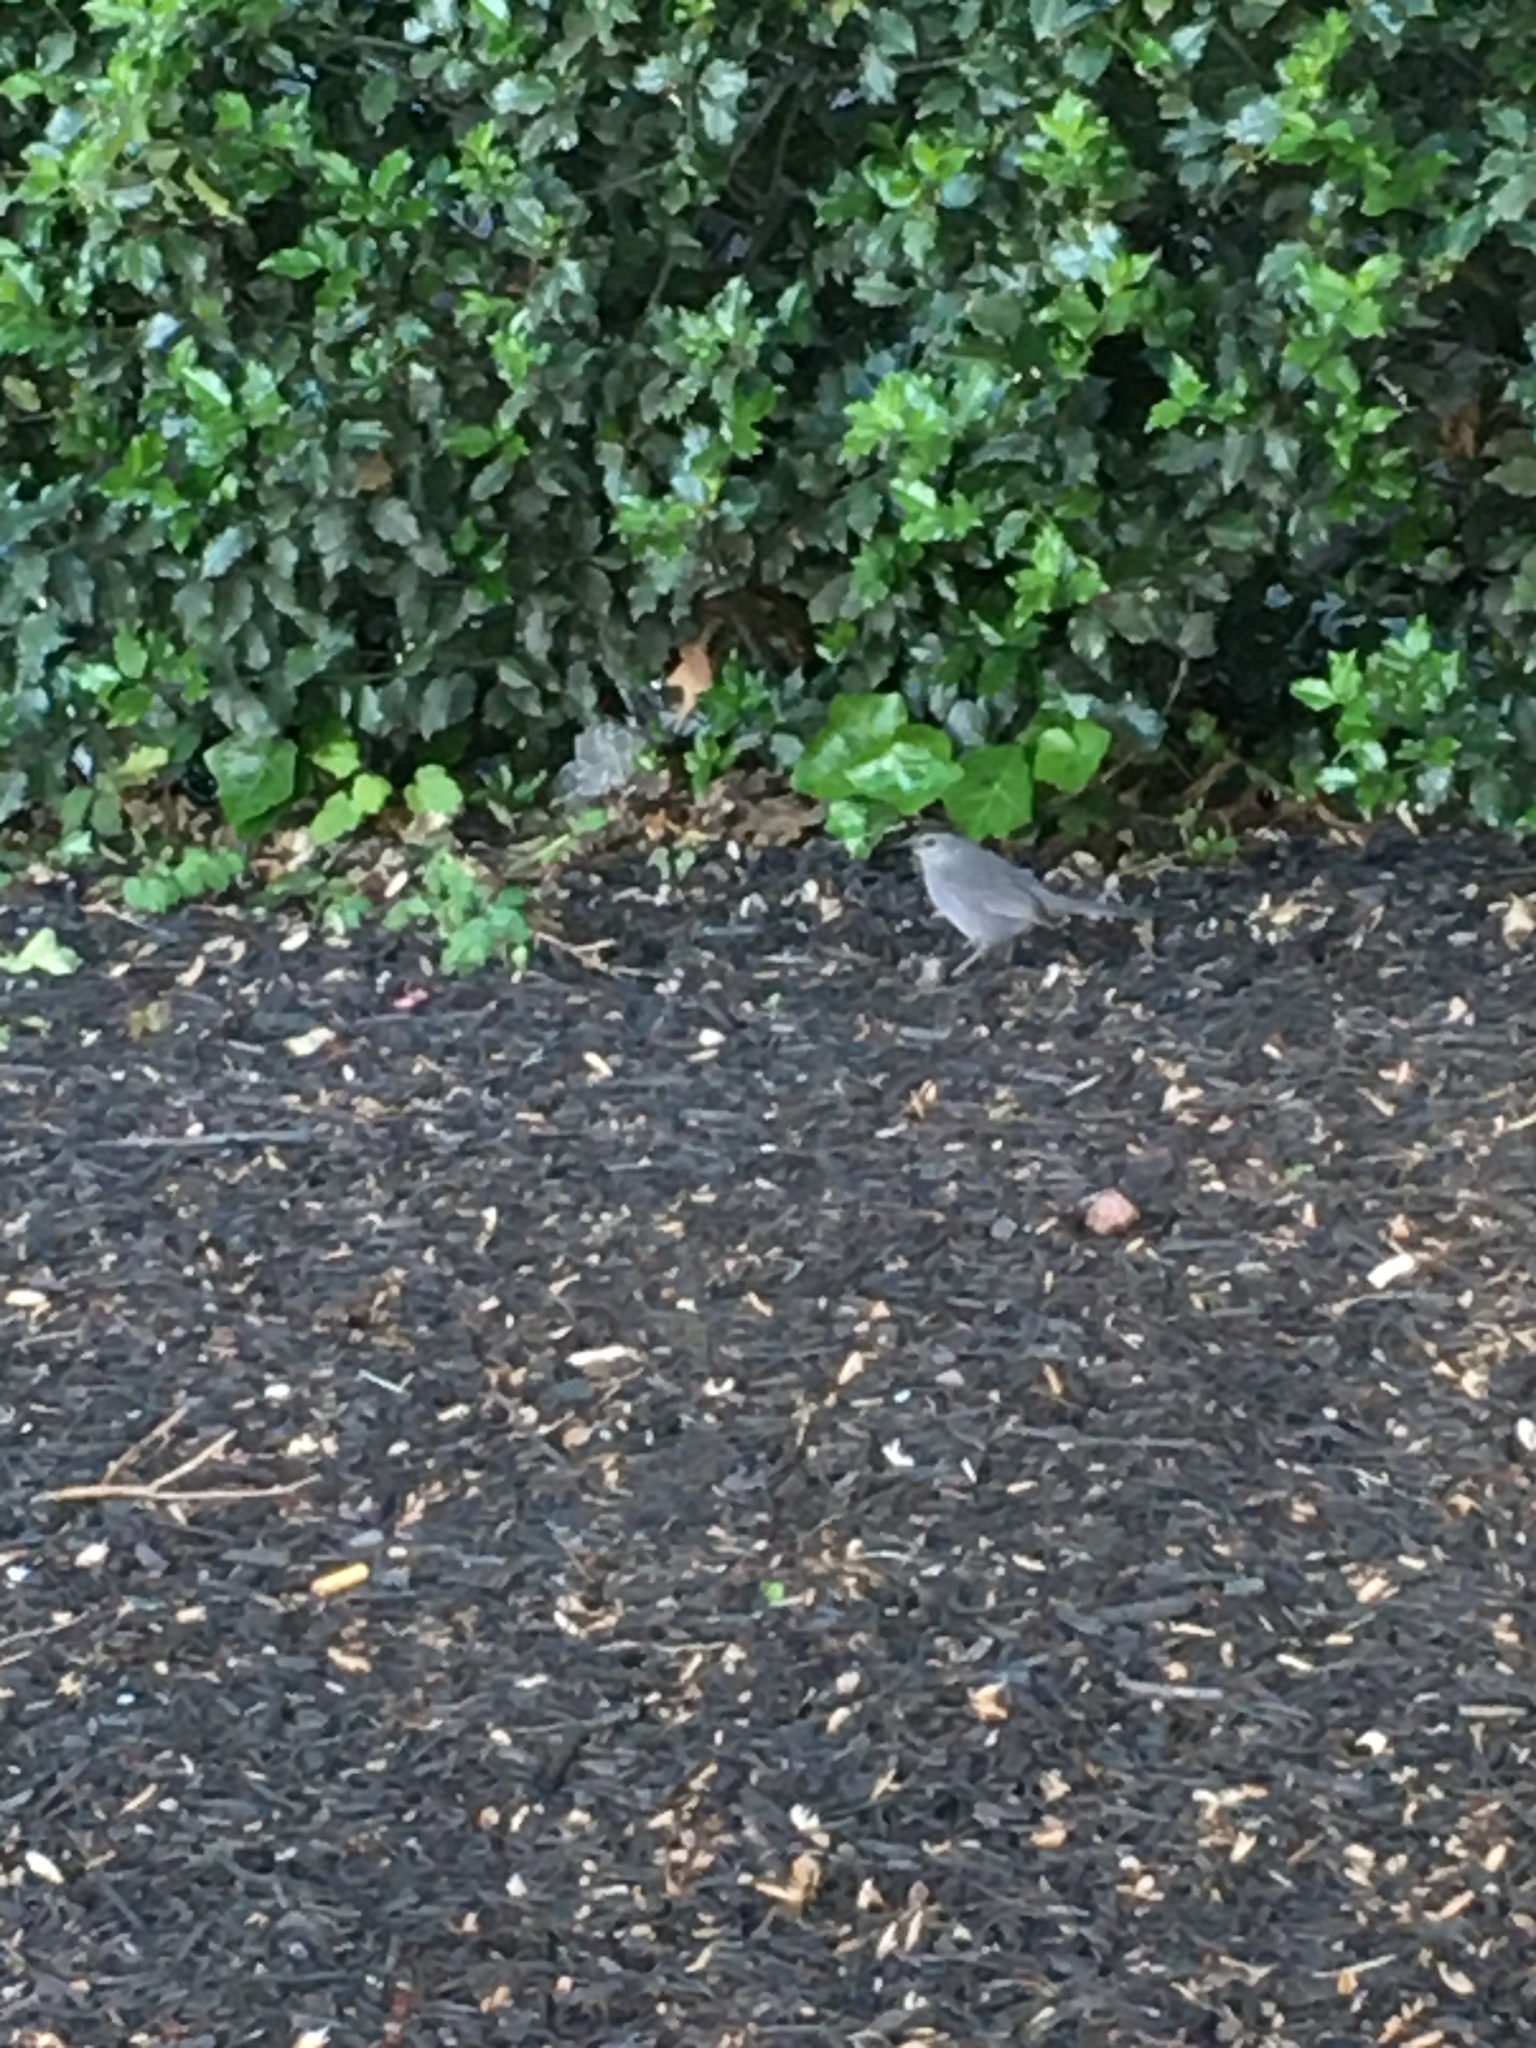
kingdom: Animalia
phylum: Chordata
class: Aves
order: Passeriformes
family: Mimidae
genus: Dumetella
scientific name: Dumetella carolinensis
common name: Gray catbird
